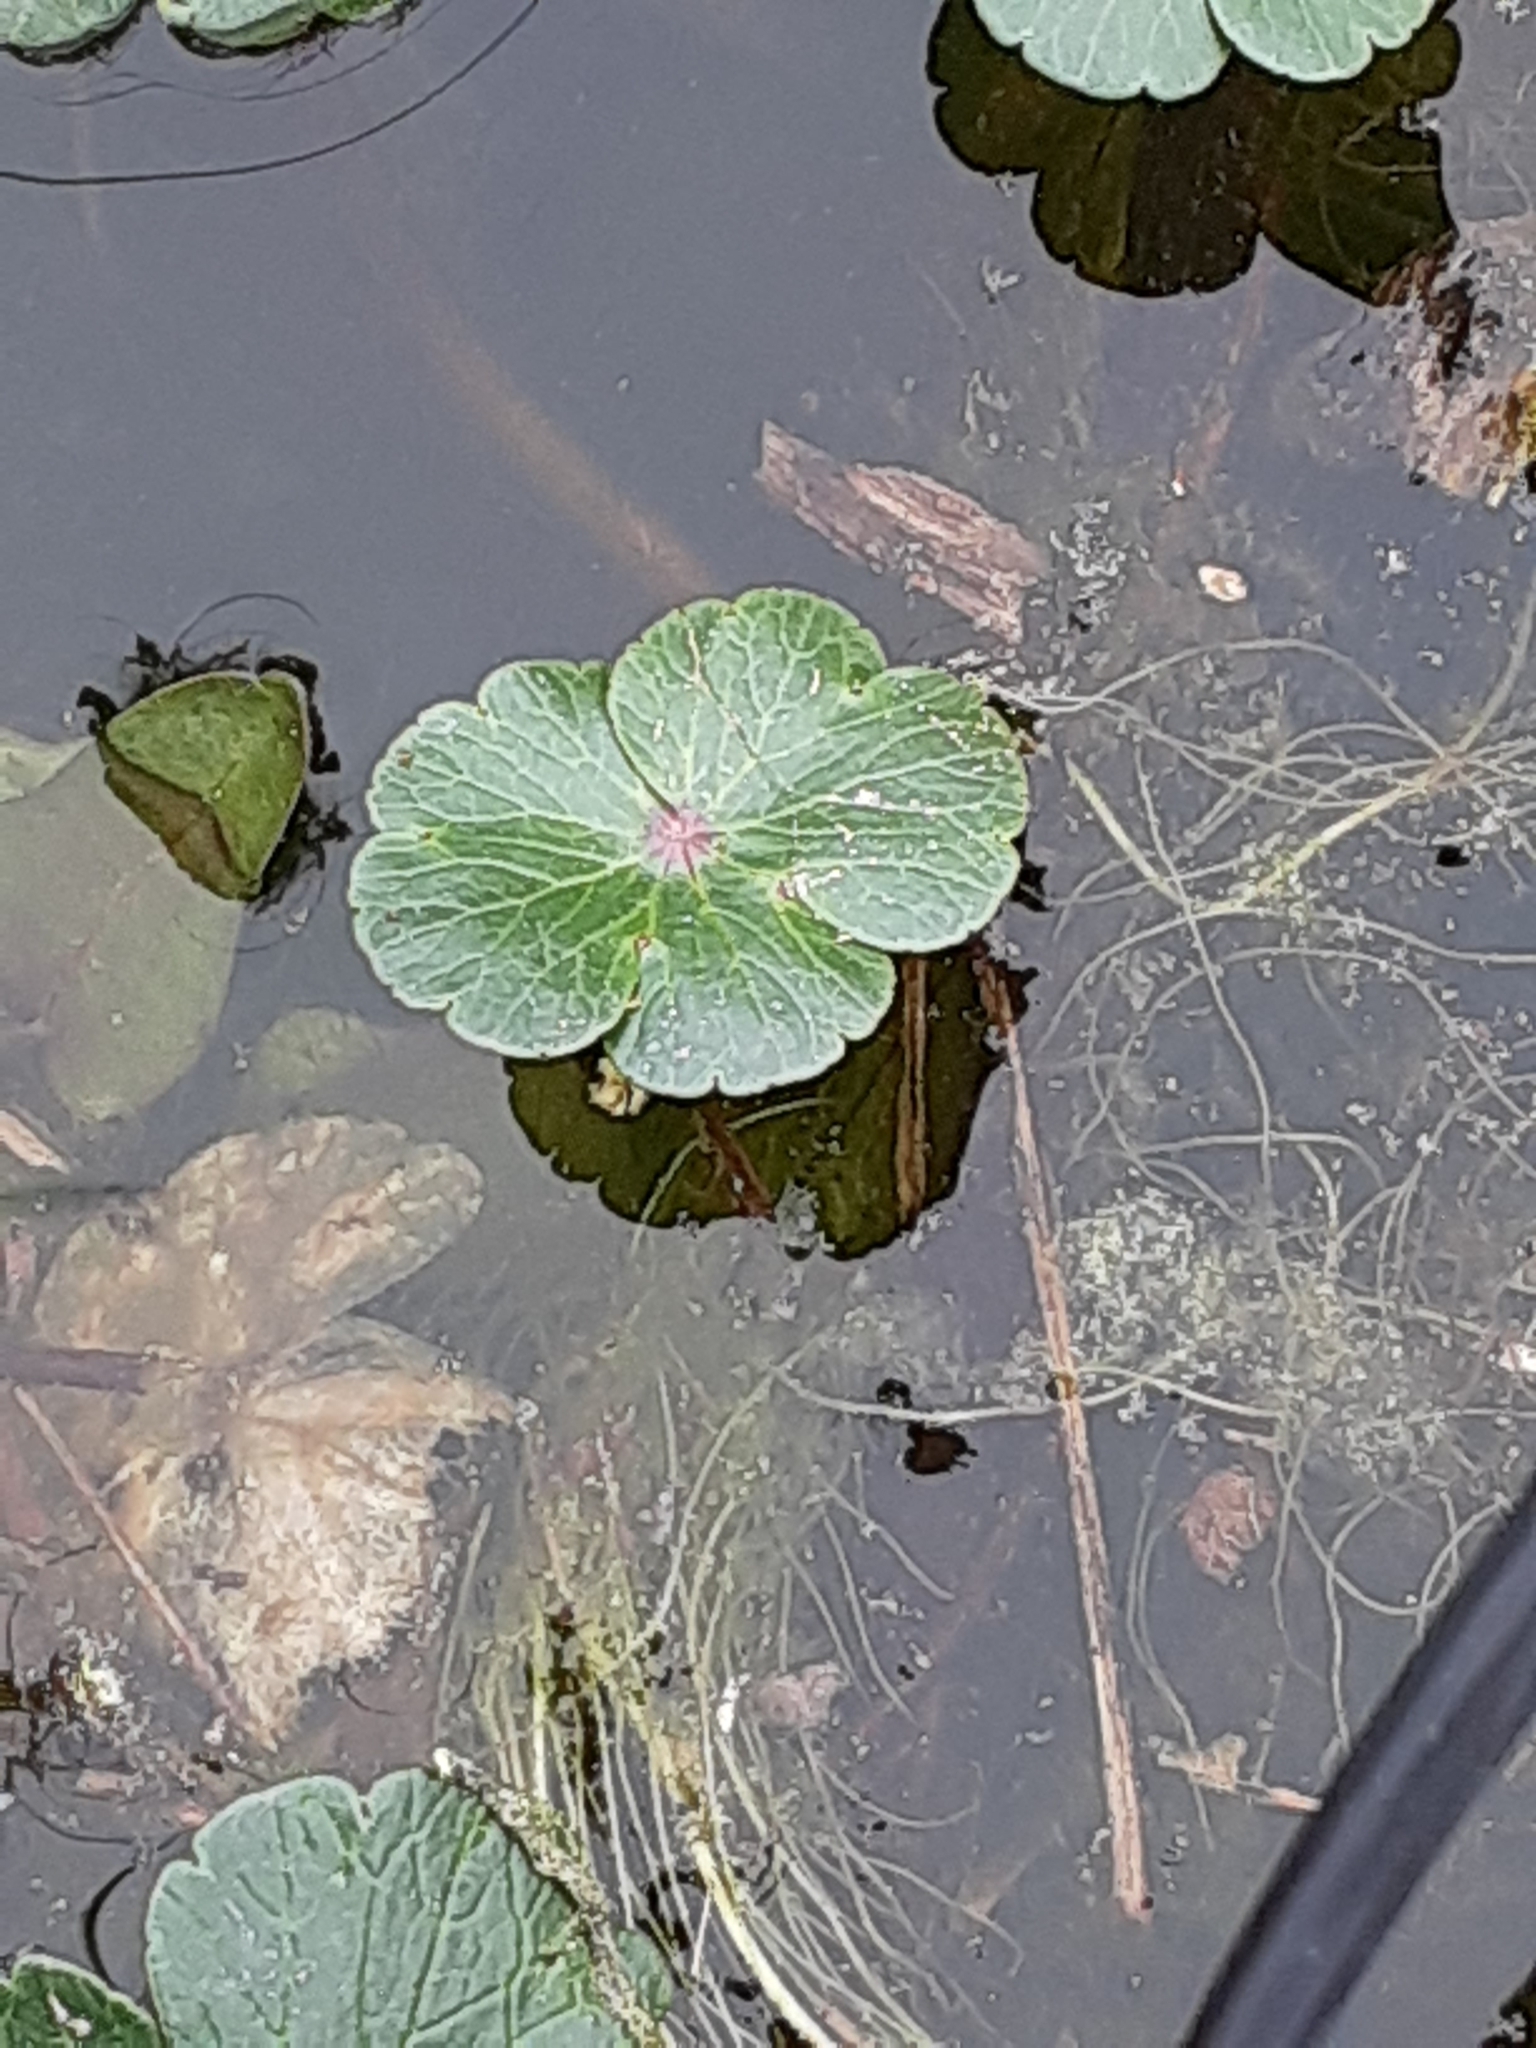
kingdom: Plantae
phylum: Tracheophyta
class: Magnoliopsida
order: Apiales
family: Araliaceae
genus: Hydrocotyle
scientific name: Hydrocotyle ranunculoides
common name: Floating pennywort
